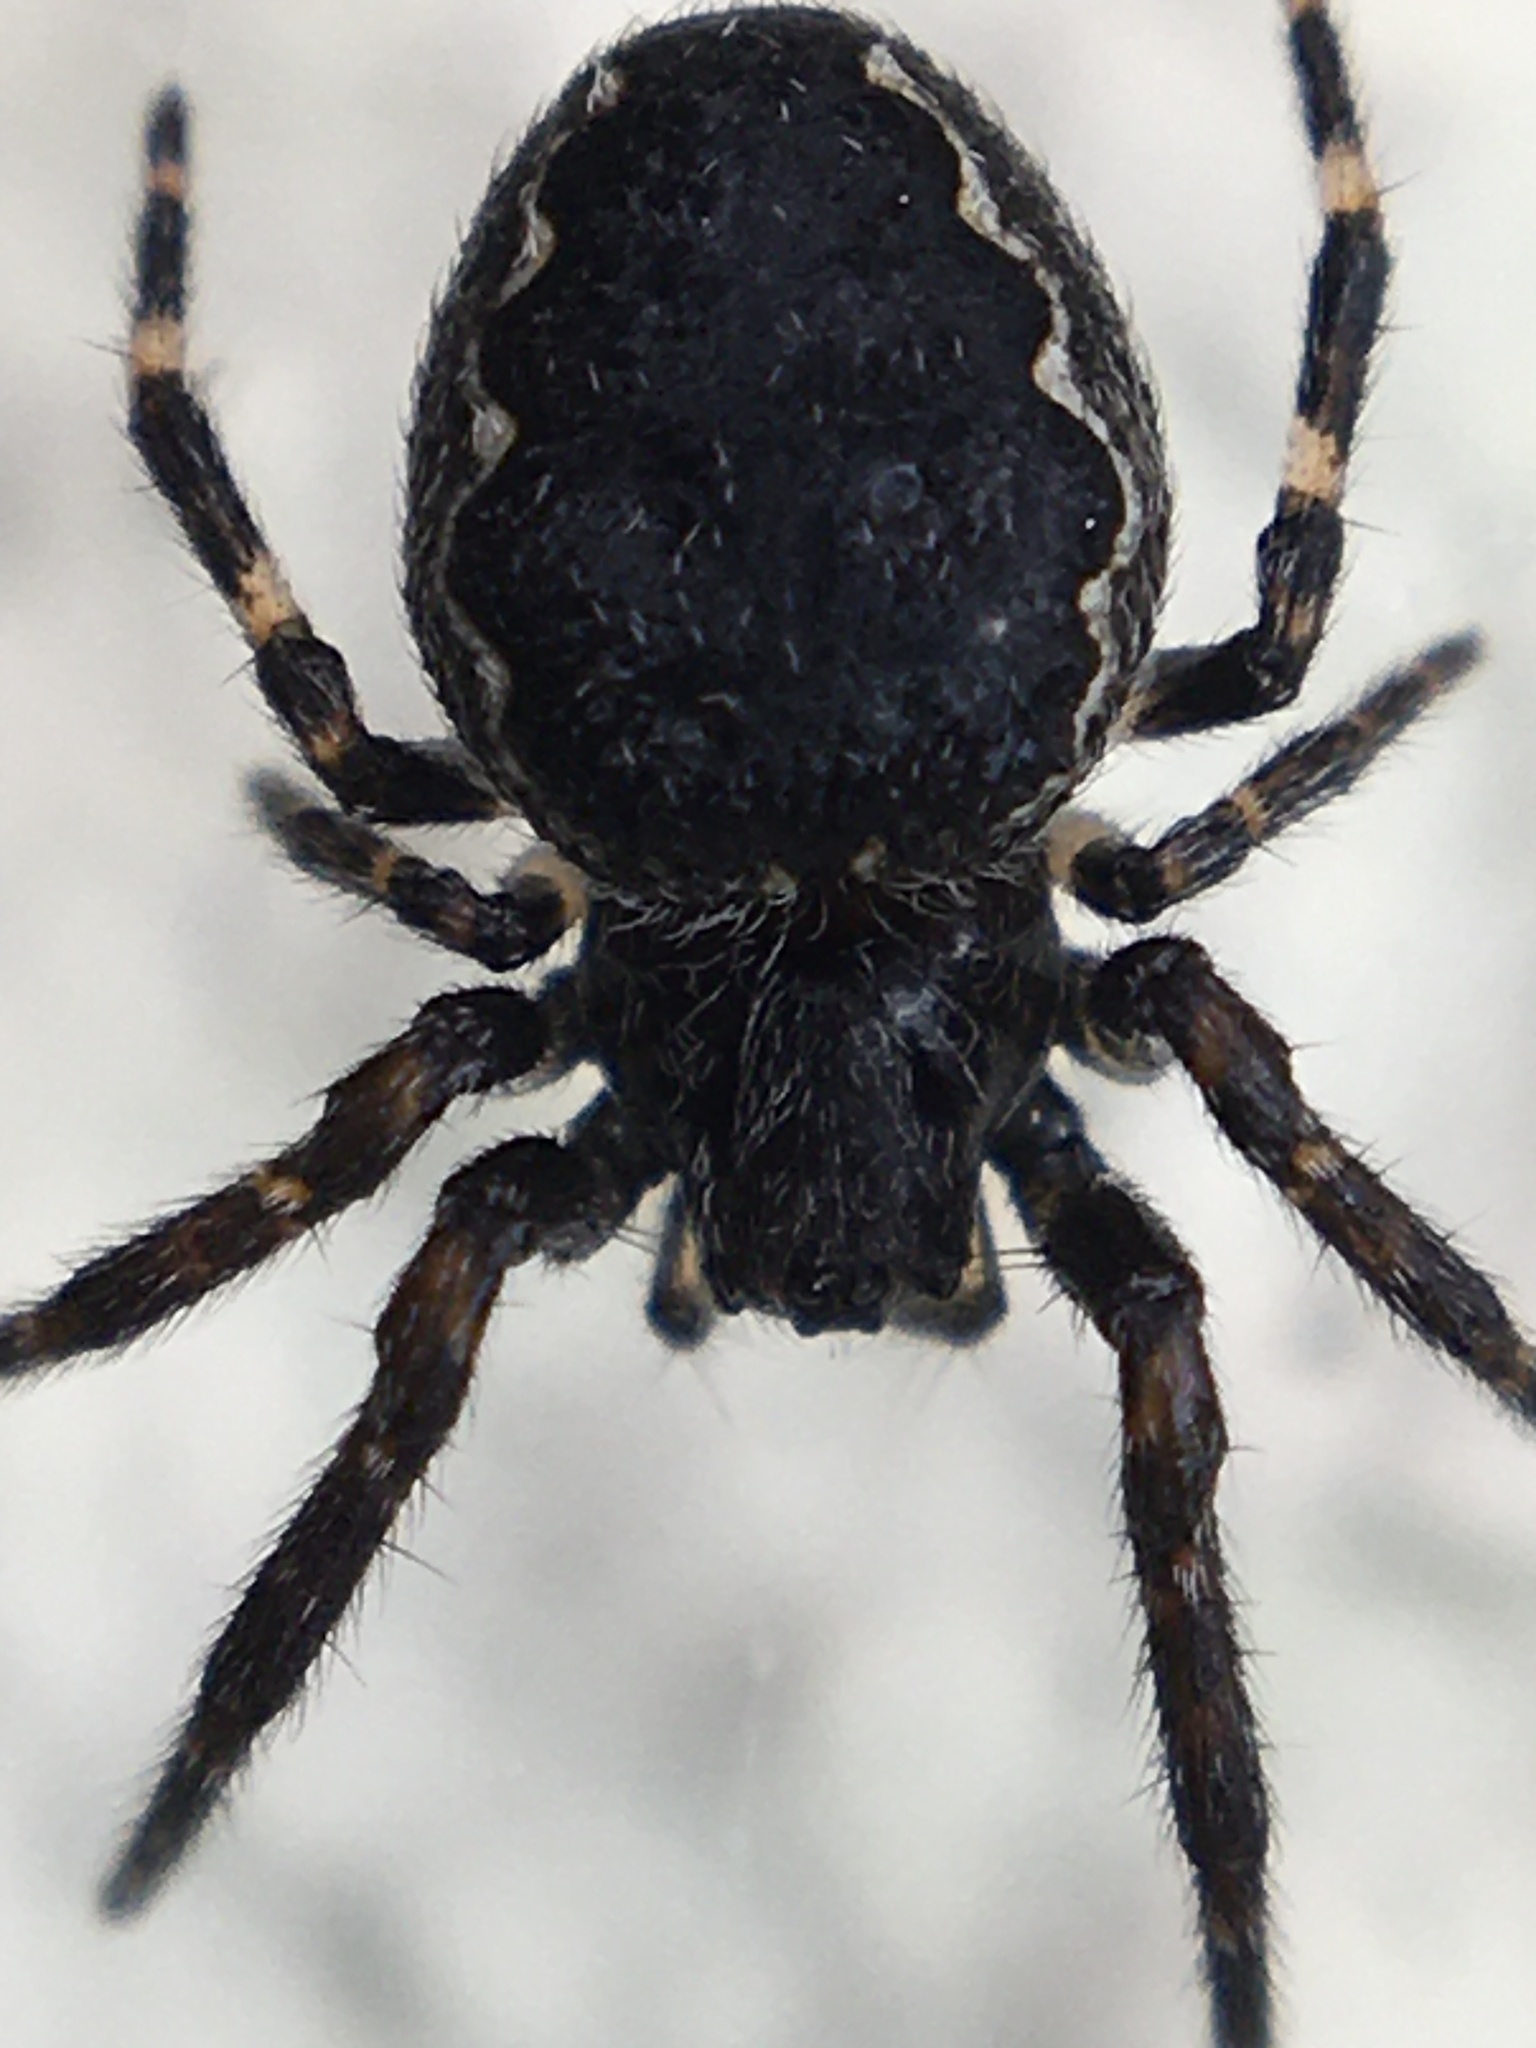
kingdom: Animalia
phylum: Arthropoda
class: Arachnida
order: Araneae
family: Araneidae
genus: Nuctenea
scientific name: Nuctenea umbratica
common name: Toad spider
